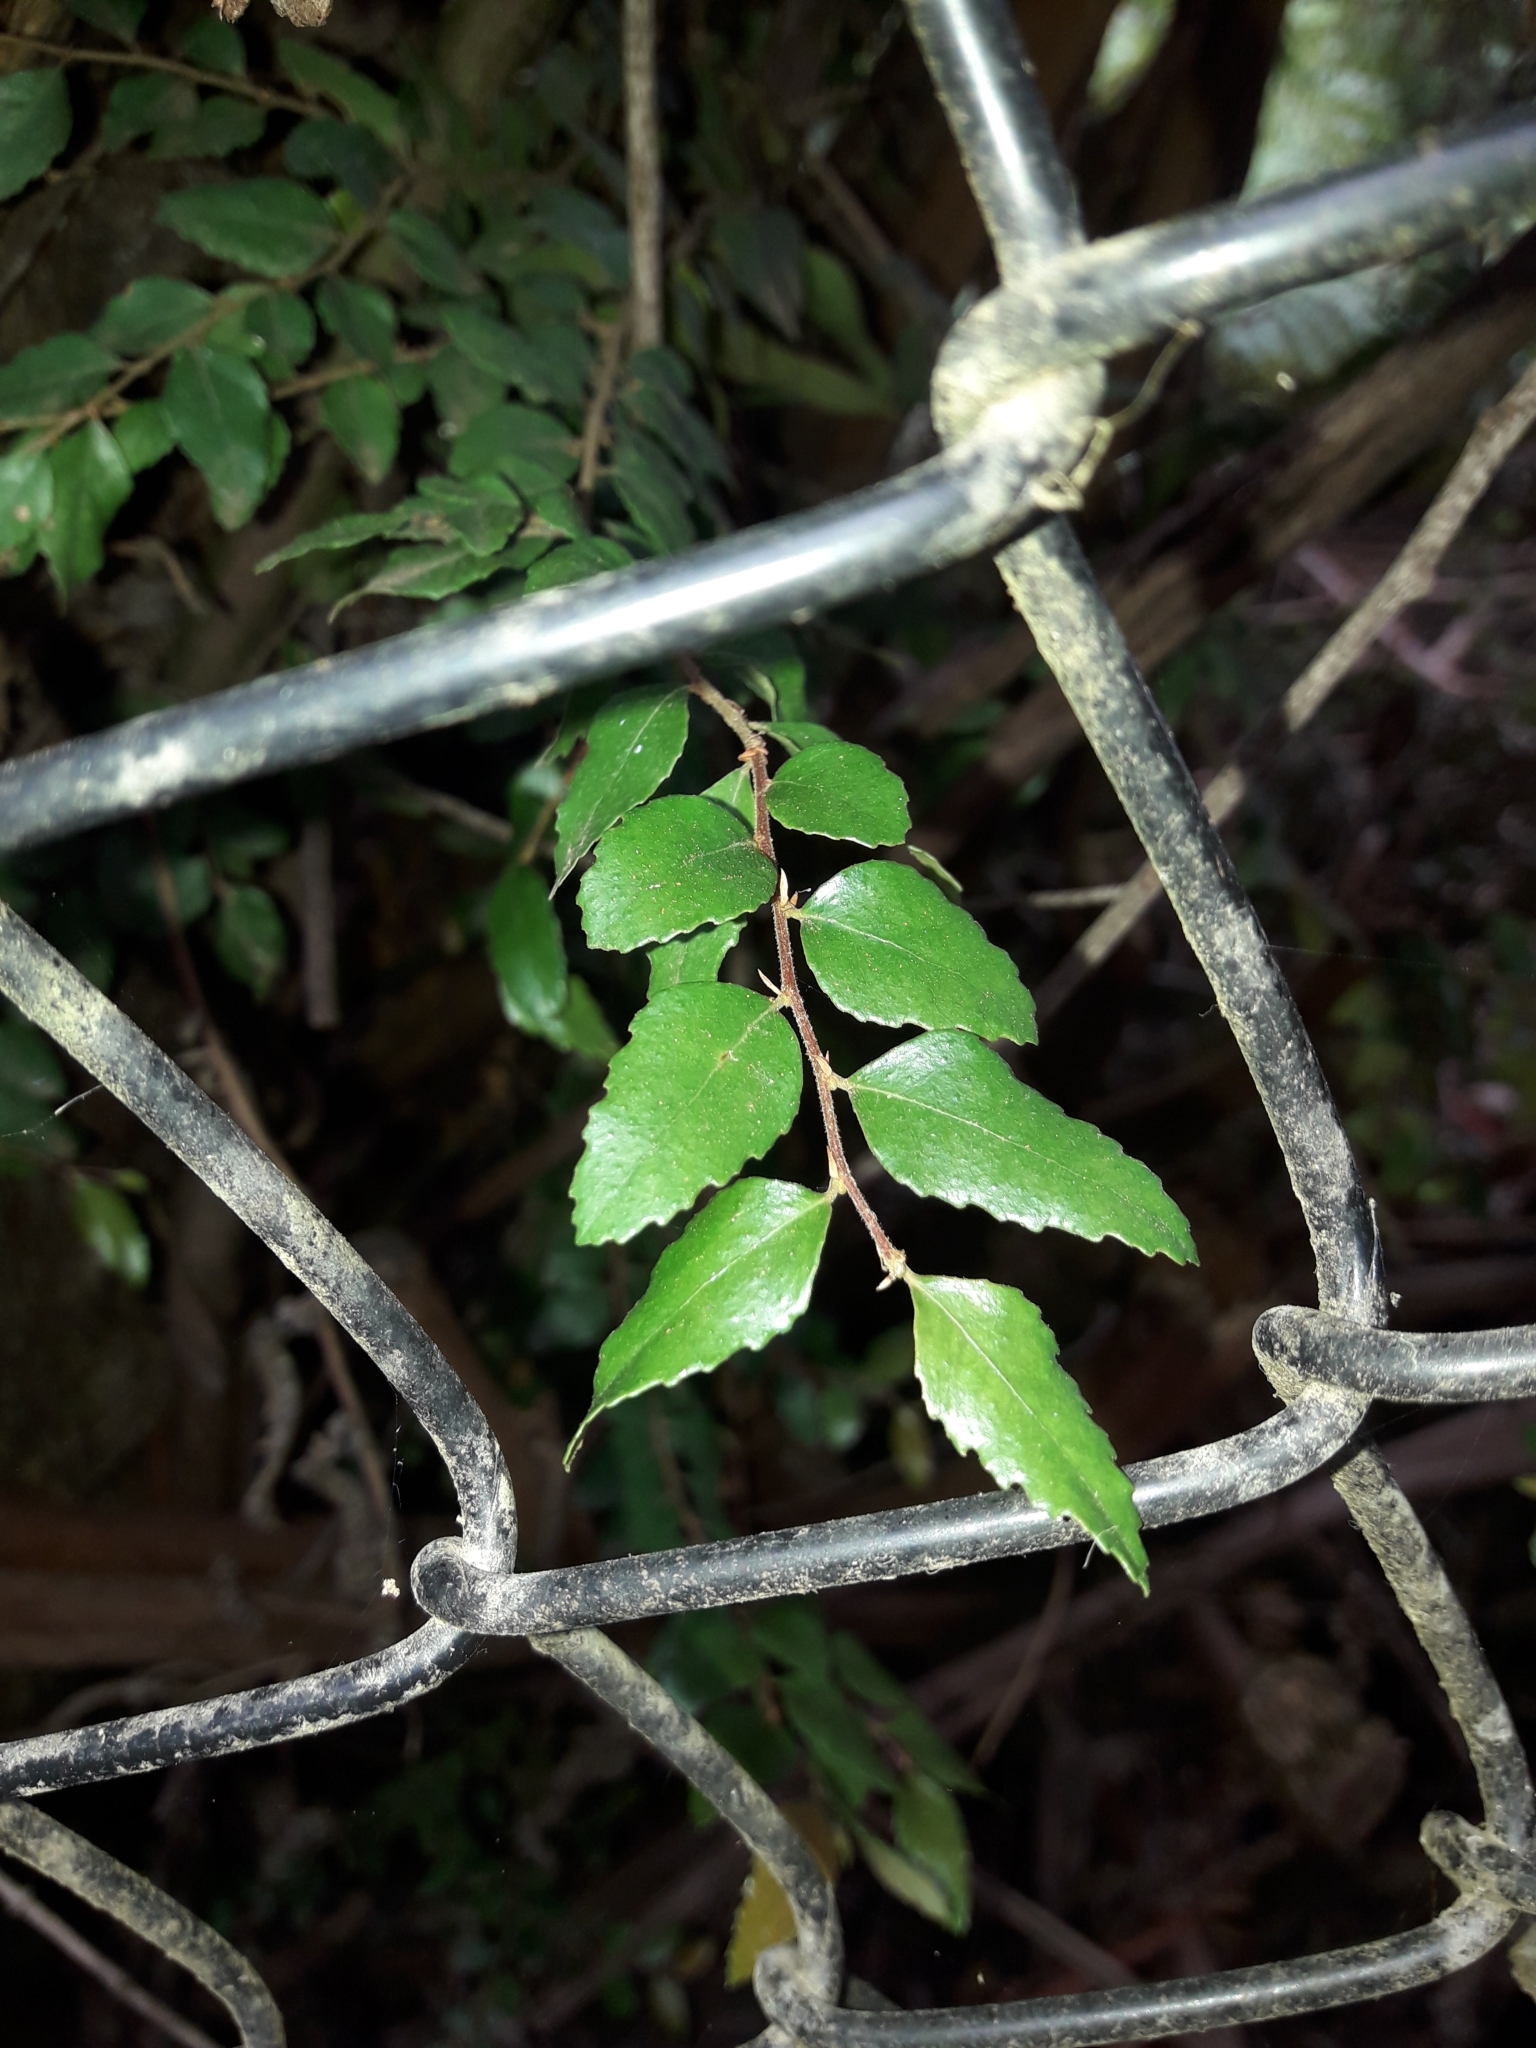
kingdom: Plantae
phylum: Tracheophyta
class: Magnoliopsida
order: Fagales
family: Nothofagaceae
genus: Nothofagus
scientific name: Nothofagus cunninghamii
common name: Myrtle beech
